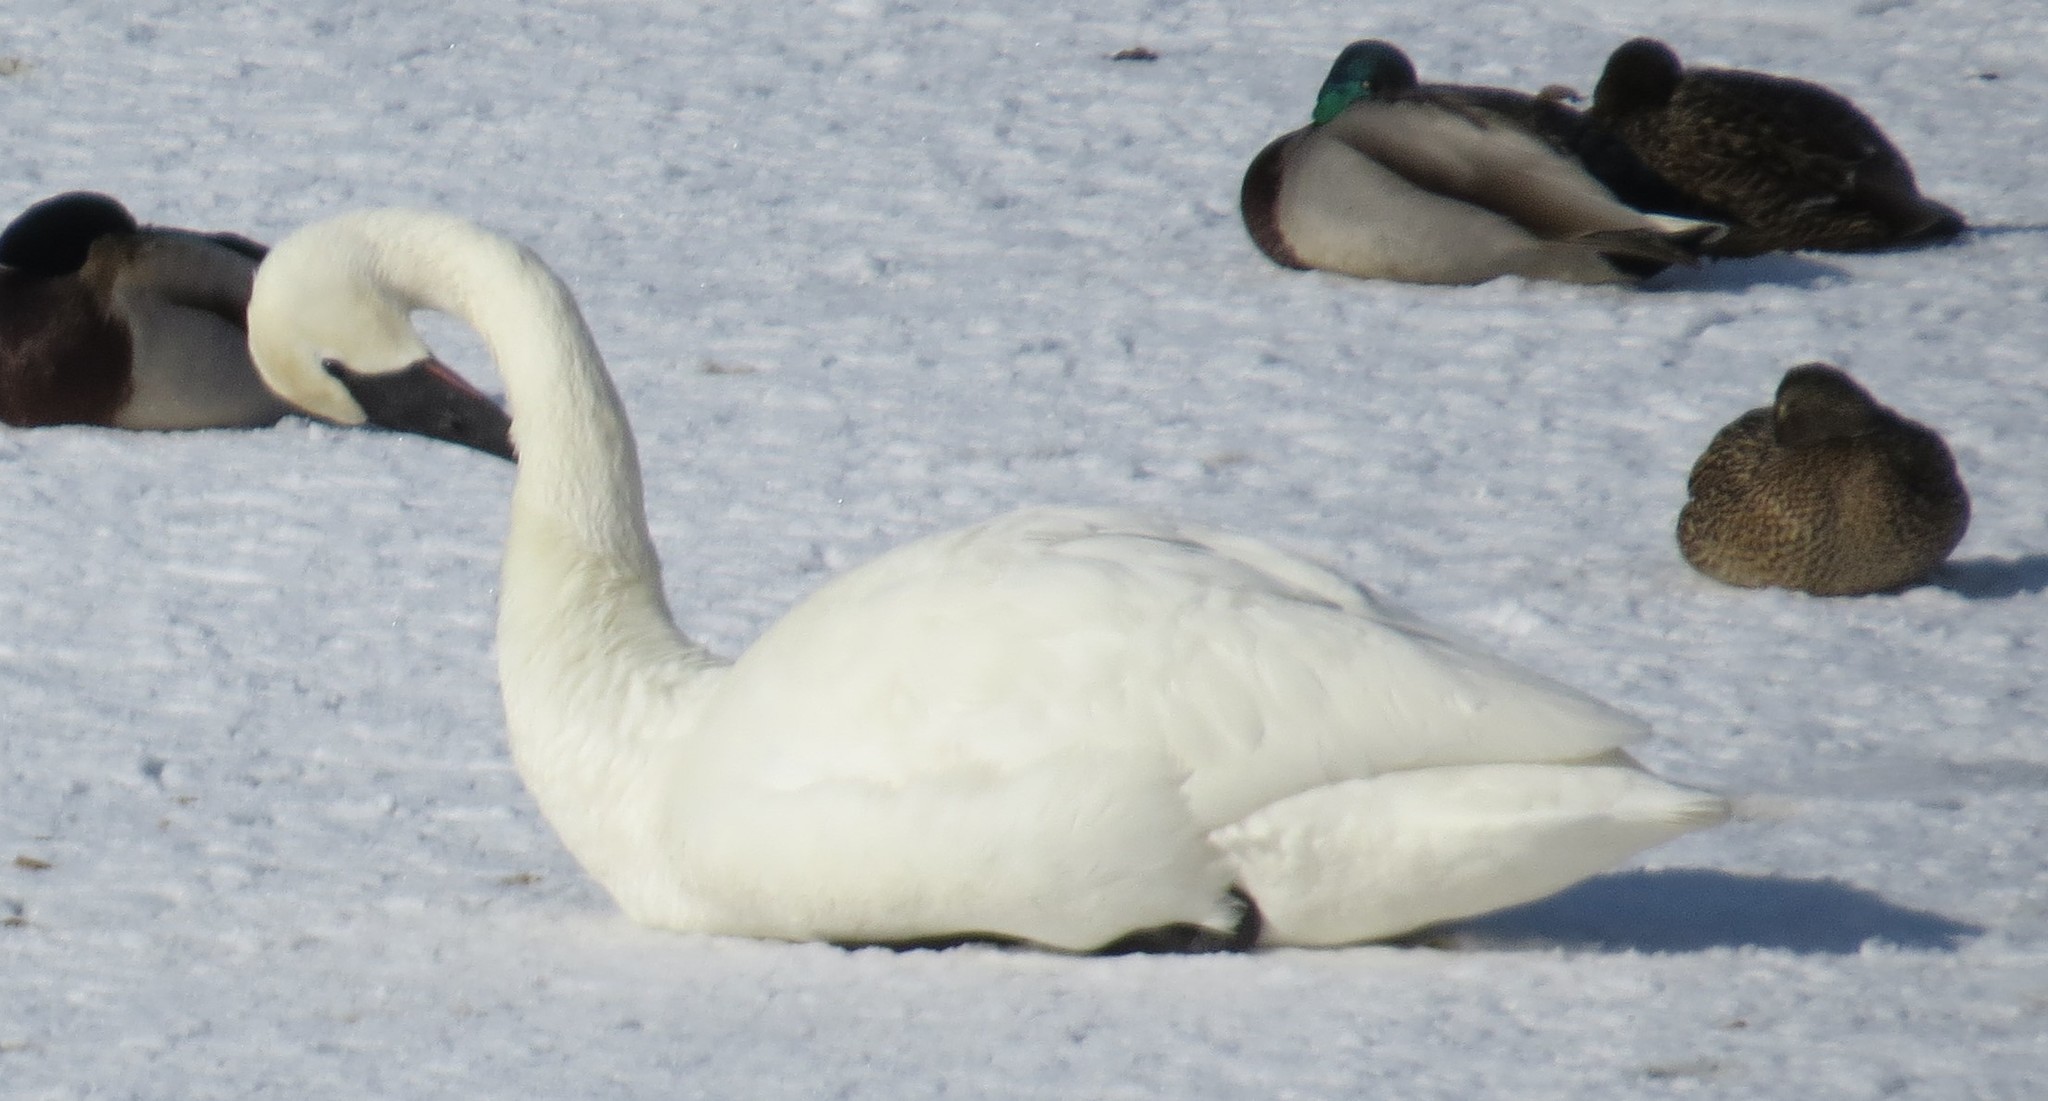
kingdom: Animalia
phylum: Chordata
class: Aves
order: Anseriformes
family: Anatidae
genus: Cygnus
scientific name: Cygnus buccinator
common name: Trumpeter swan
